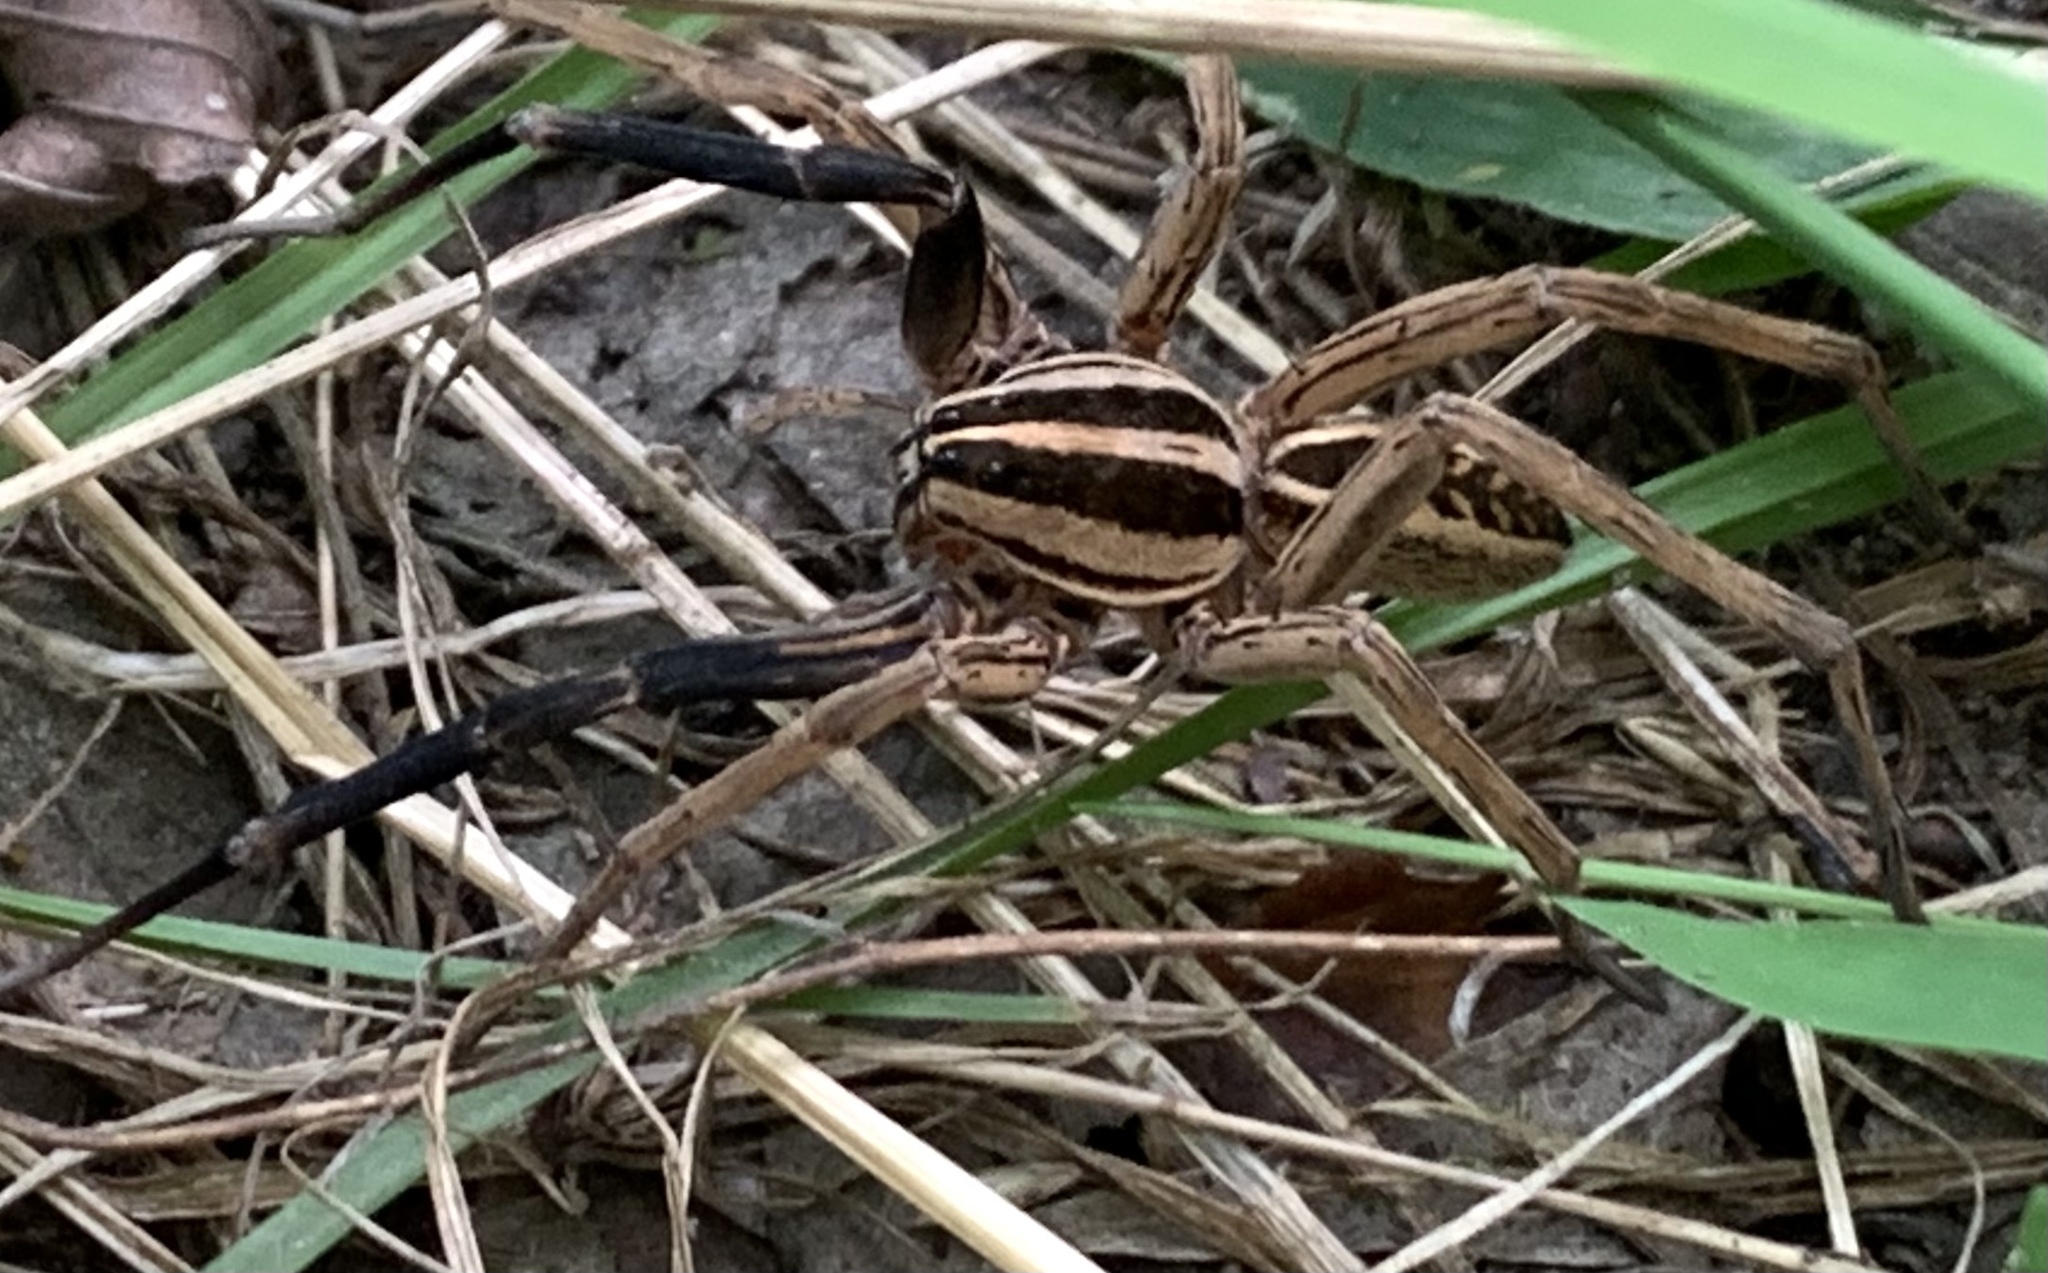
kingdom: Animalia
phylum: Arthropoda
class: Arachnida
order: Araneae
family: Lycosidae
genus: Rabidosa
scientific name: Rabidosa rabida
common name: Rabid wolf spider
